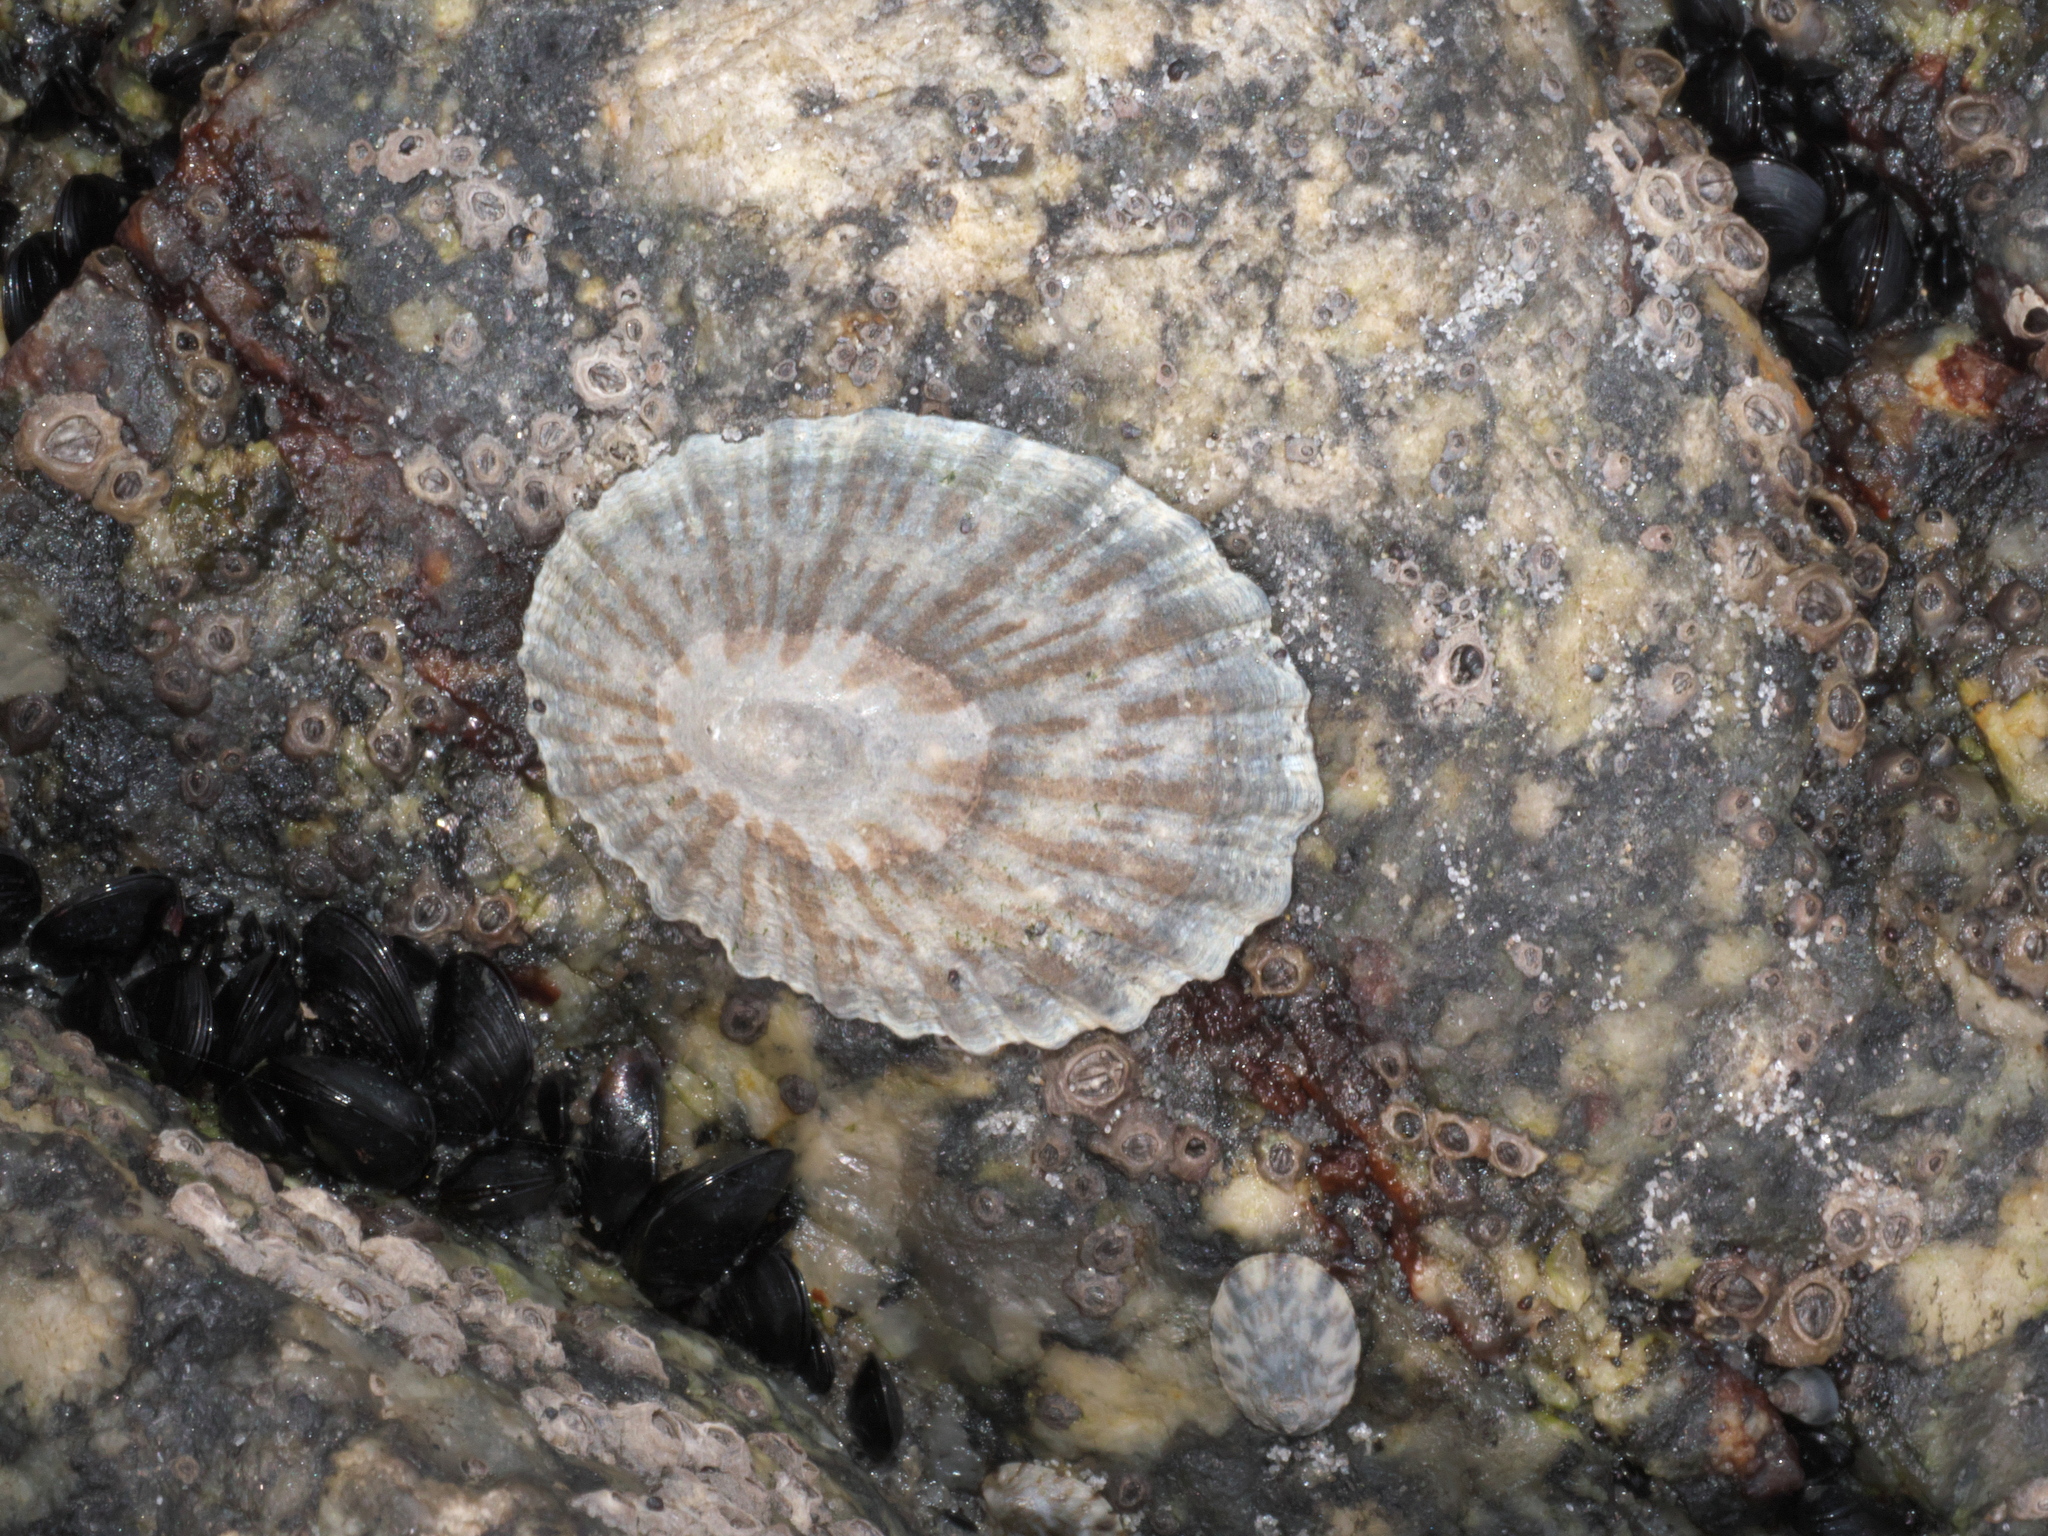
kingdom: Animalia
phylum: Mollusca
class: Gastropoda
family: Nacellidae
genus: Cellana
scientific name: Cellana radians
